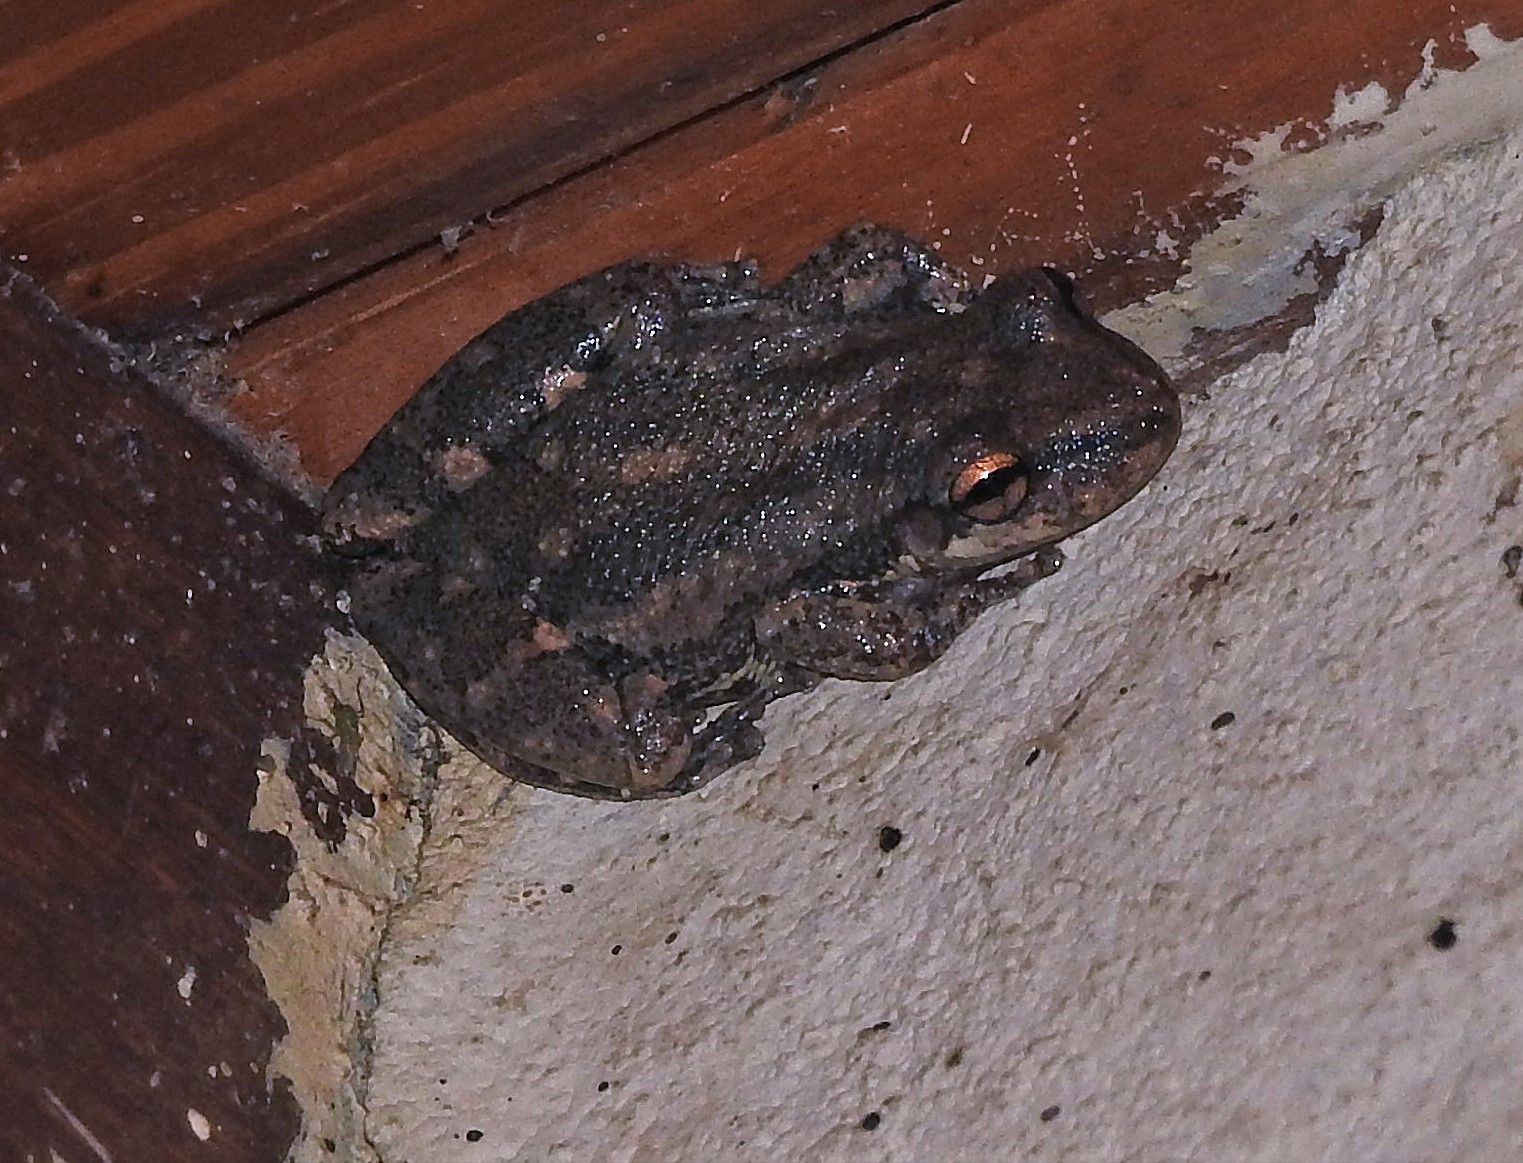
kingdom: Animalia
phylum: Chordata
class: Amphibia
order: Anura
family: Hylidae
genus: Scinax
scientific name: Scinax nasicus
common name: Lesser snouted treefrog
